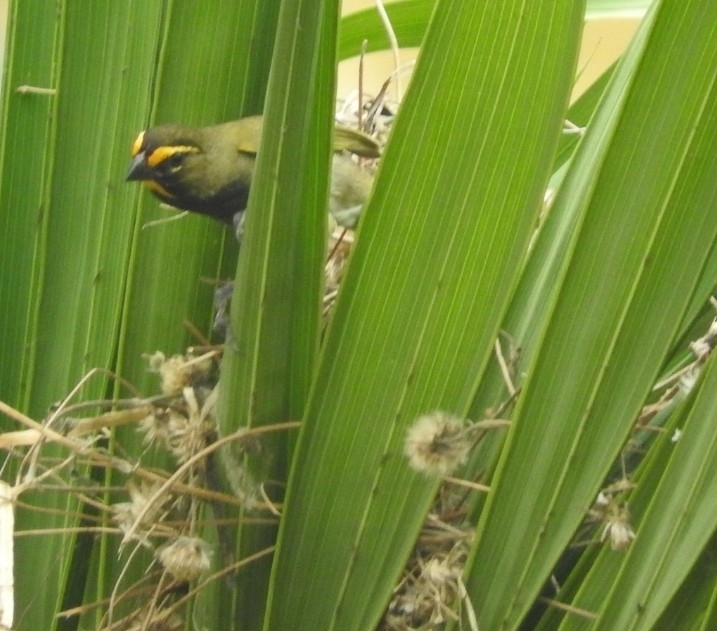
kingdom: Animalia
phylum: Chordata
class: Aves
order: Passeriformes
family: Thraupidae
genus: Tiaris
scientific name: Tiaris olivaceus
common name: Yellow-faced grassquit
